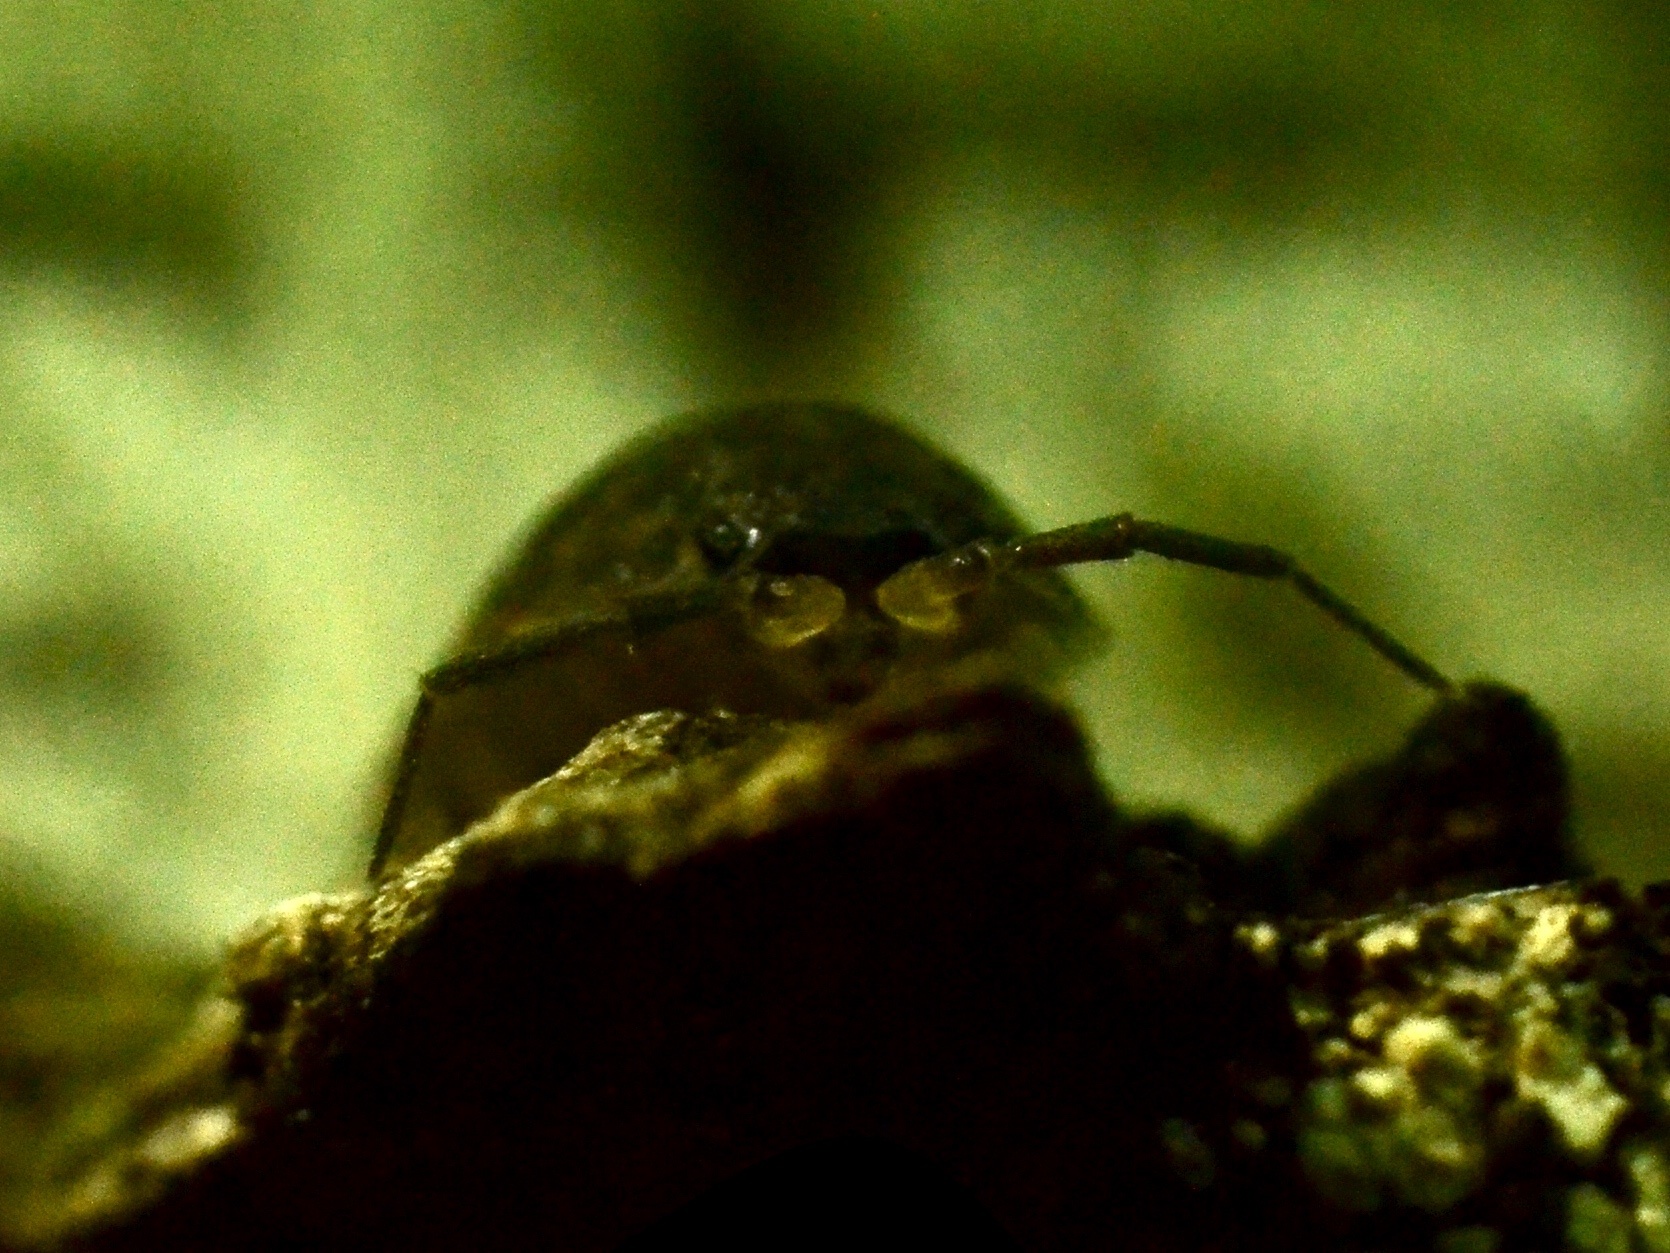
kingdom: Animalia
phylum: Arthropoda
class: Malacostraca
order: Isopoda
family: Trachelipodidae
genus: Trachelipus
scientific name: Trachelipus
